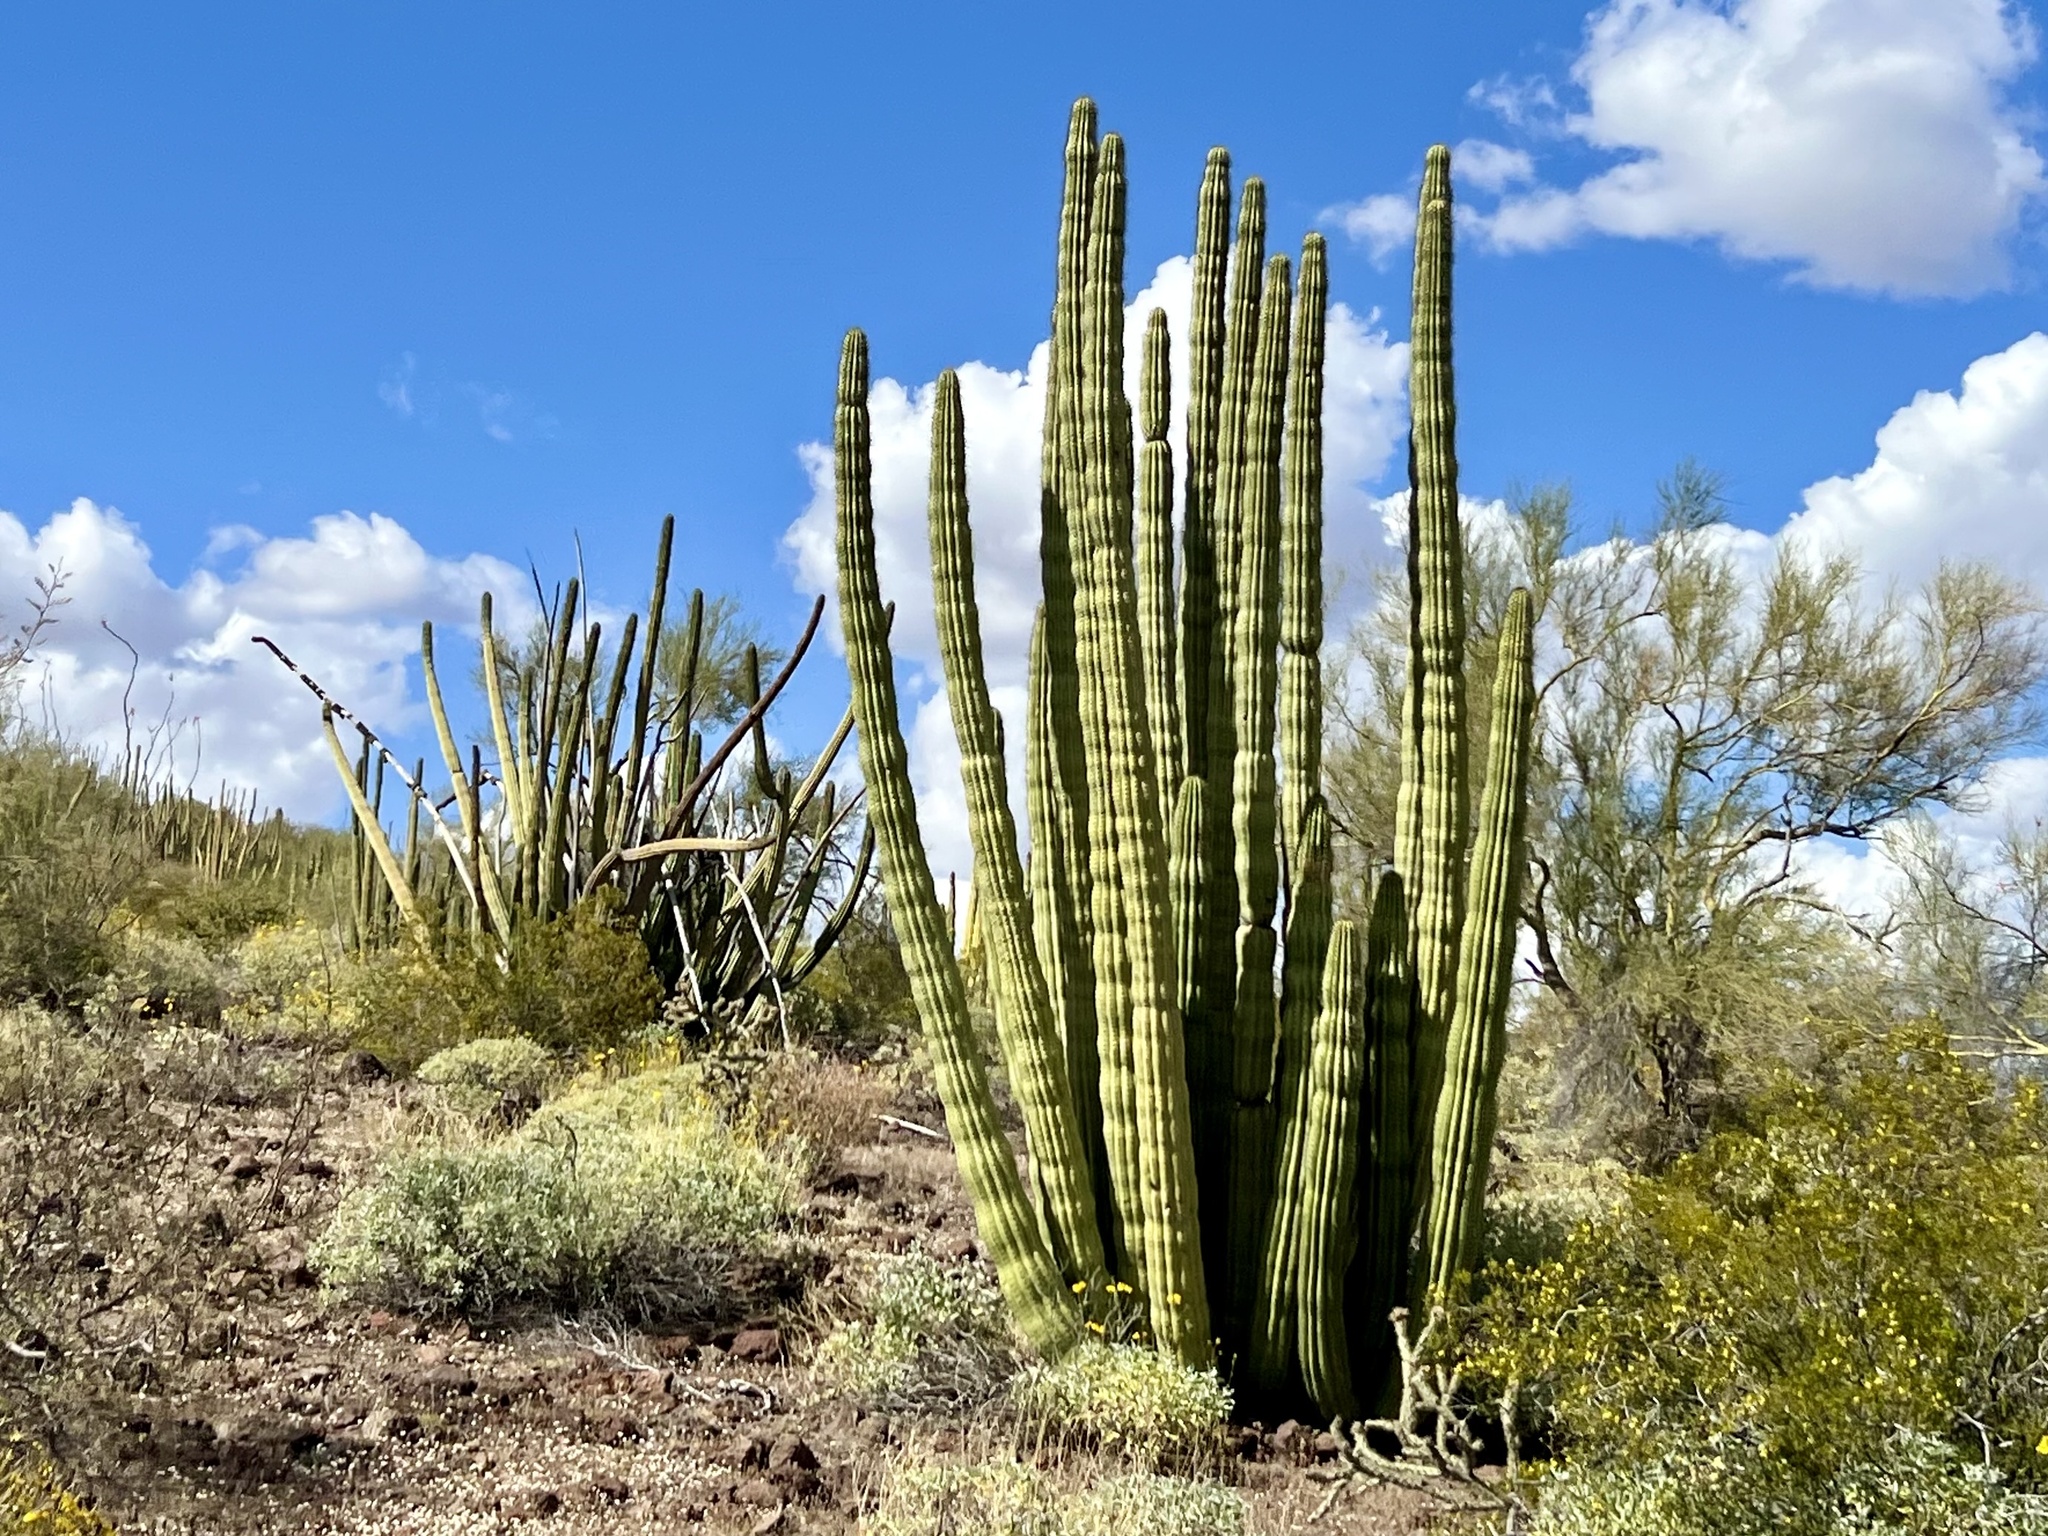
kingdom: Plantae
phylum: Tracheophyta
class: Magnoliopsida
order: Caryophyllales
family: Cactaceae
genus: Stenocereus
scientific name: Stenocereus thurberi
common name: Organ pipe cactus
